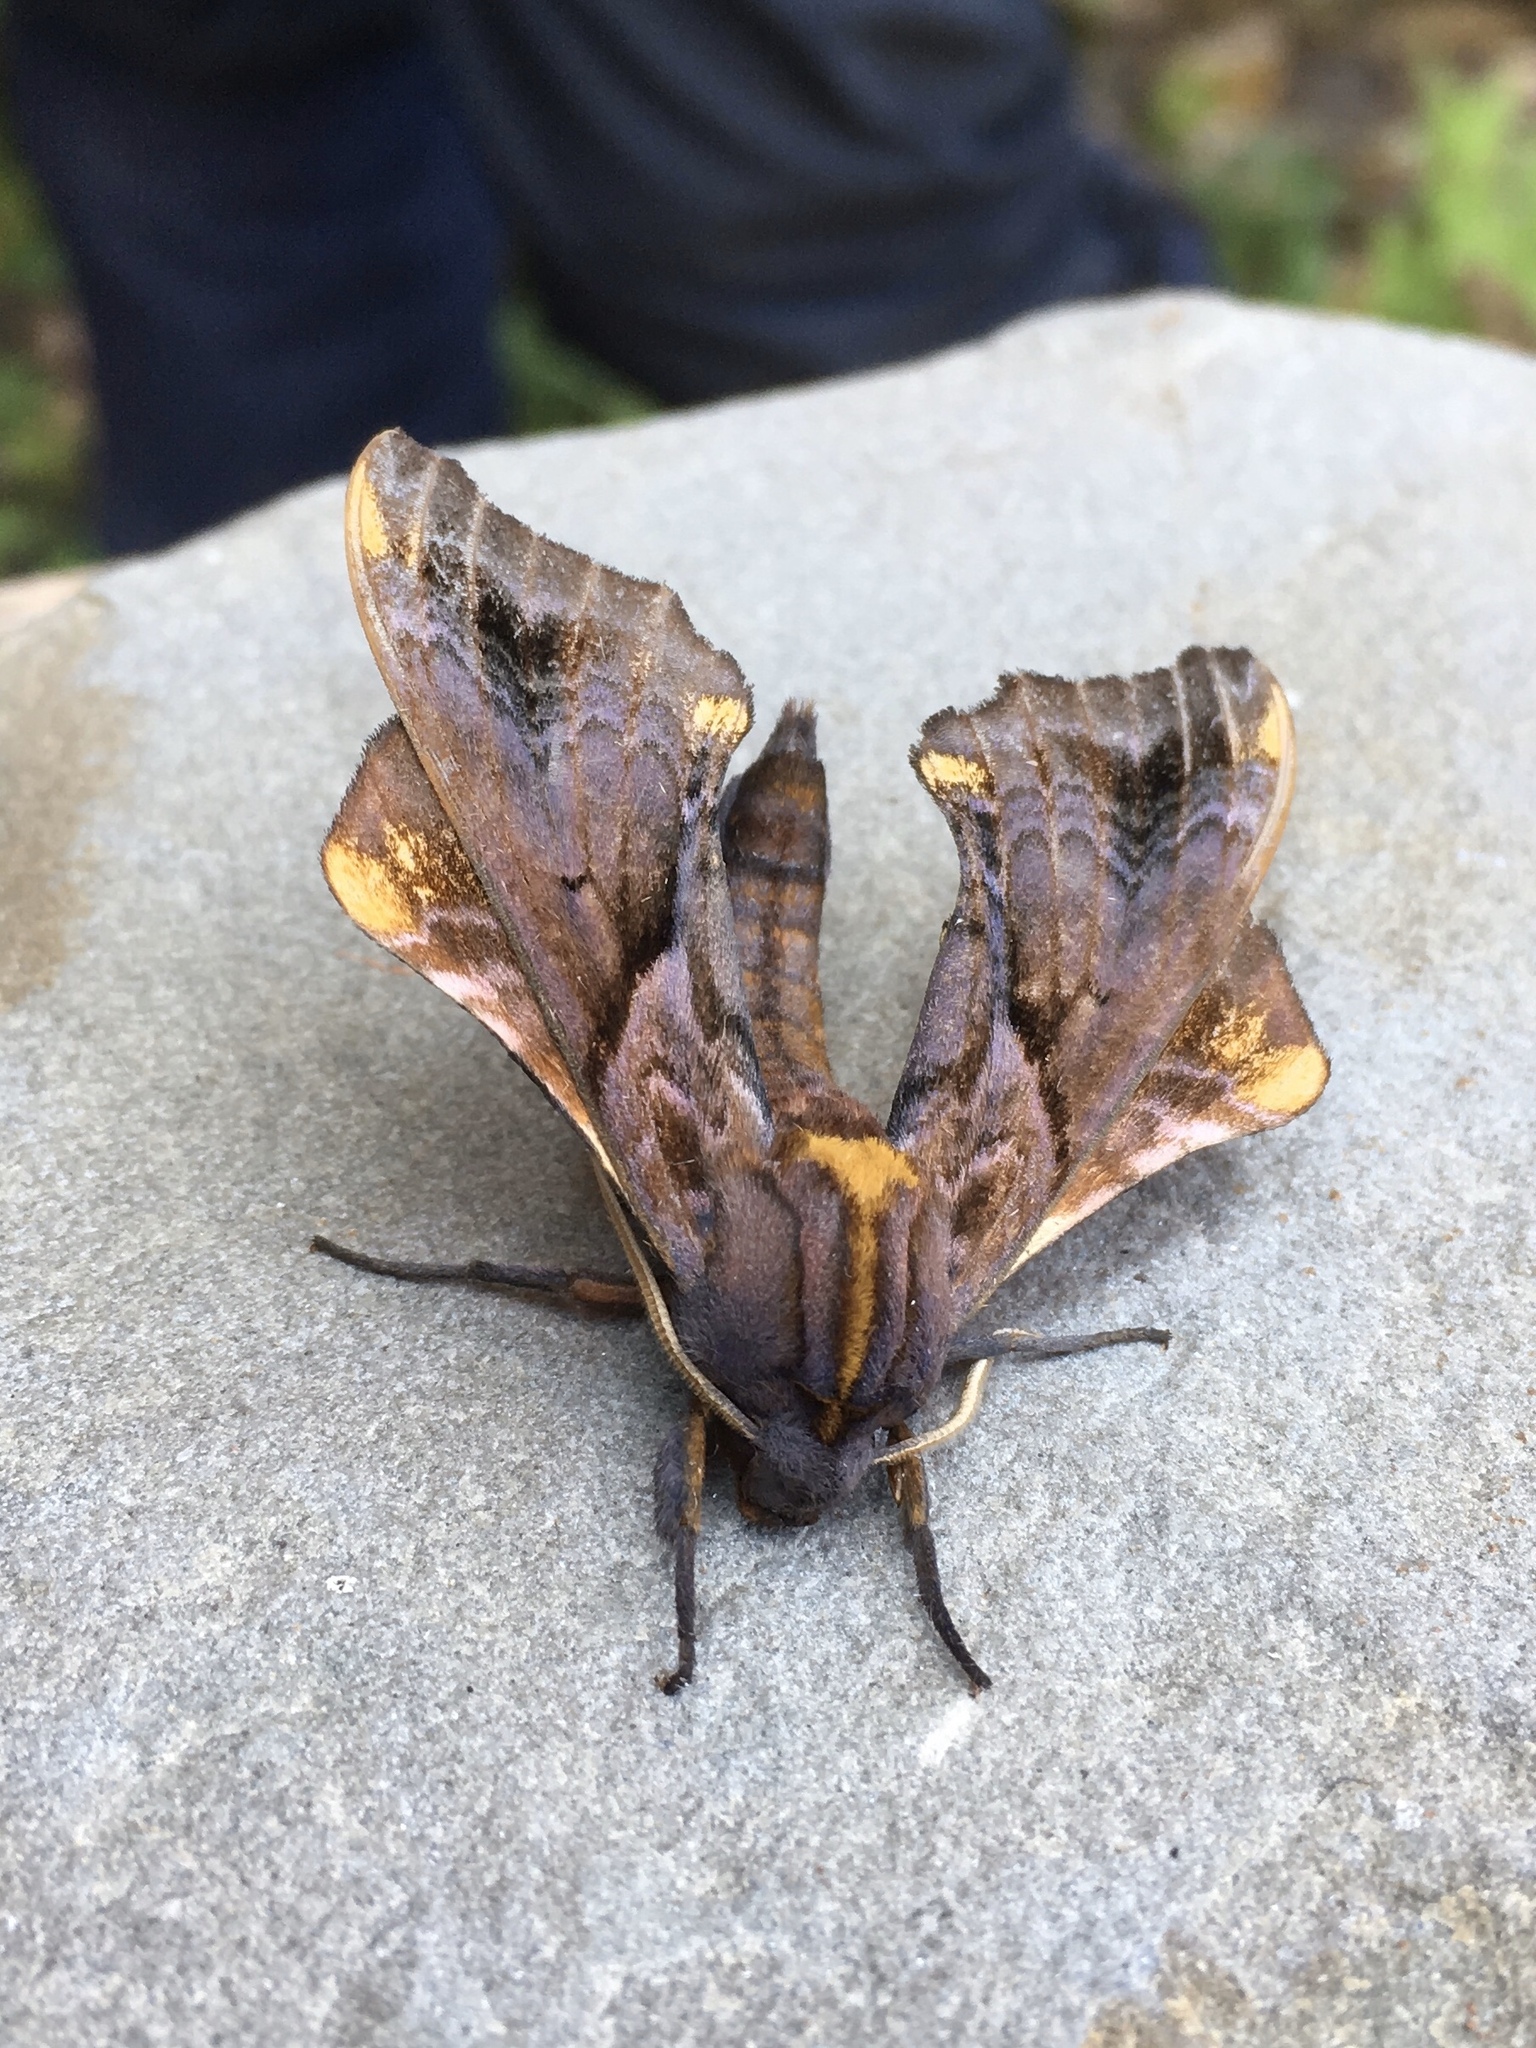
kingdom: Animalia
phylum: Arthropoda
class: Insecta
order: Lepidoptera
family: Sphingidae
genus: Paonias
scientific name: Paonias myops
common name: Small-eyed sphinx
